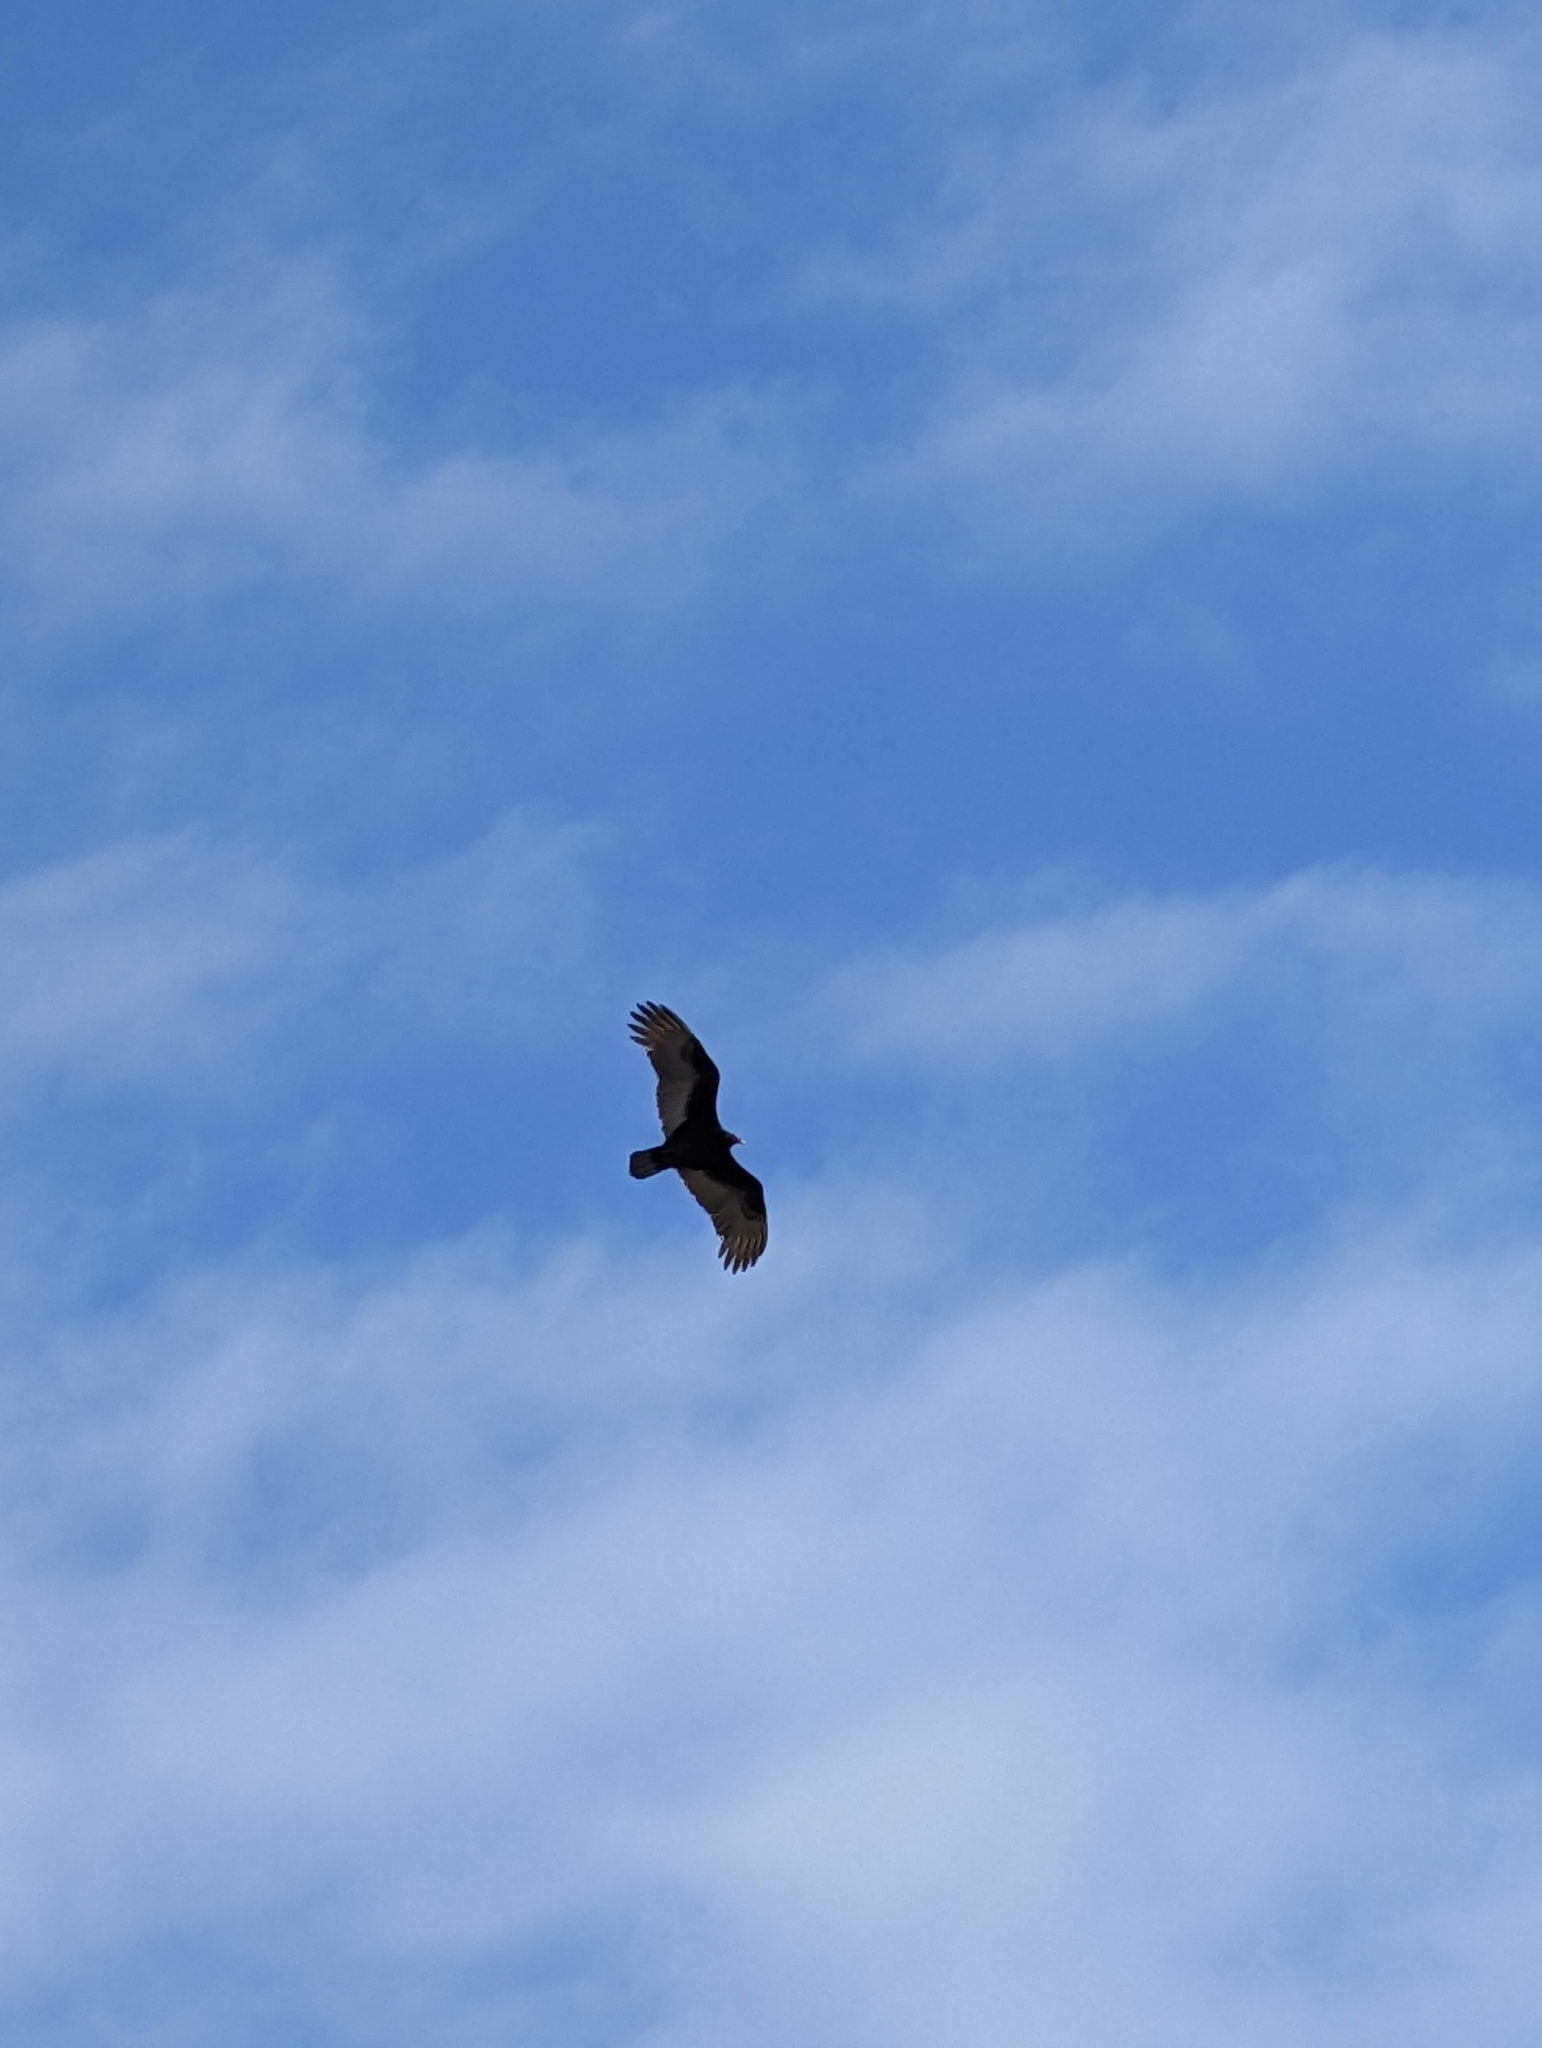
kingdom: Animalia
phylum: Chordata
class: Aves
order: Accipitriformes
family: Cathartidae
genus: Cathartes
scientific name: Cathartes aura
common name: Turkey vulture
